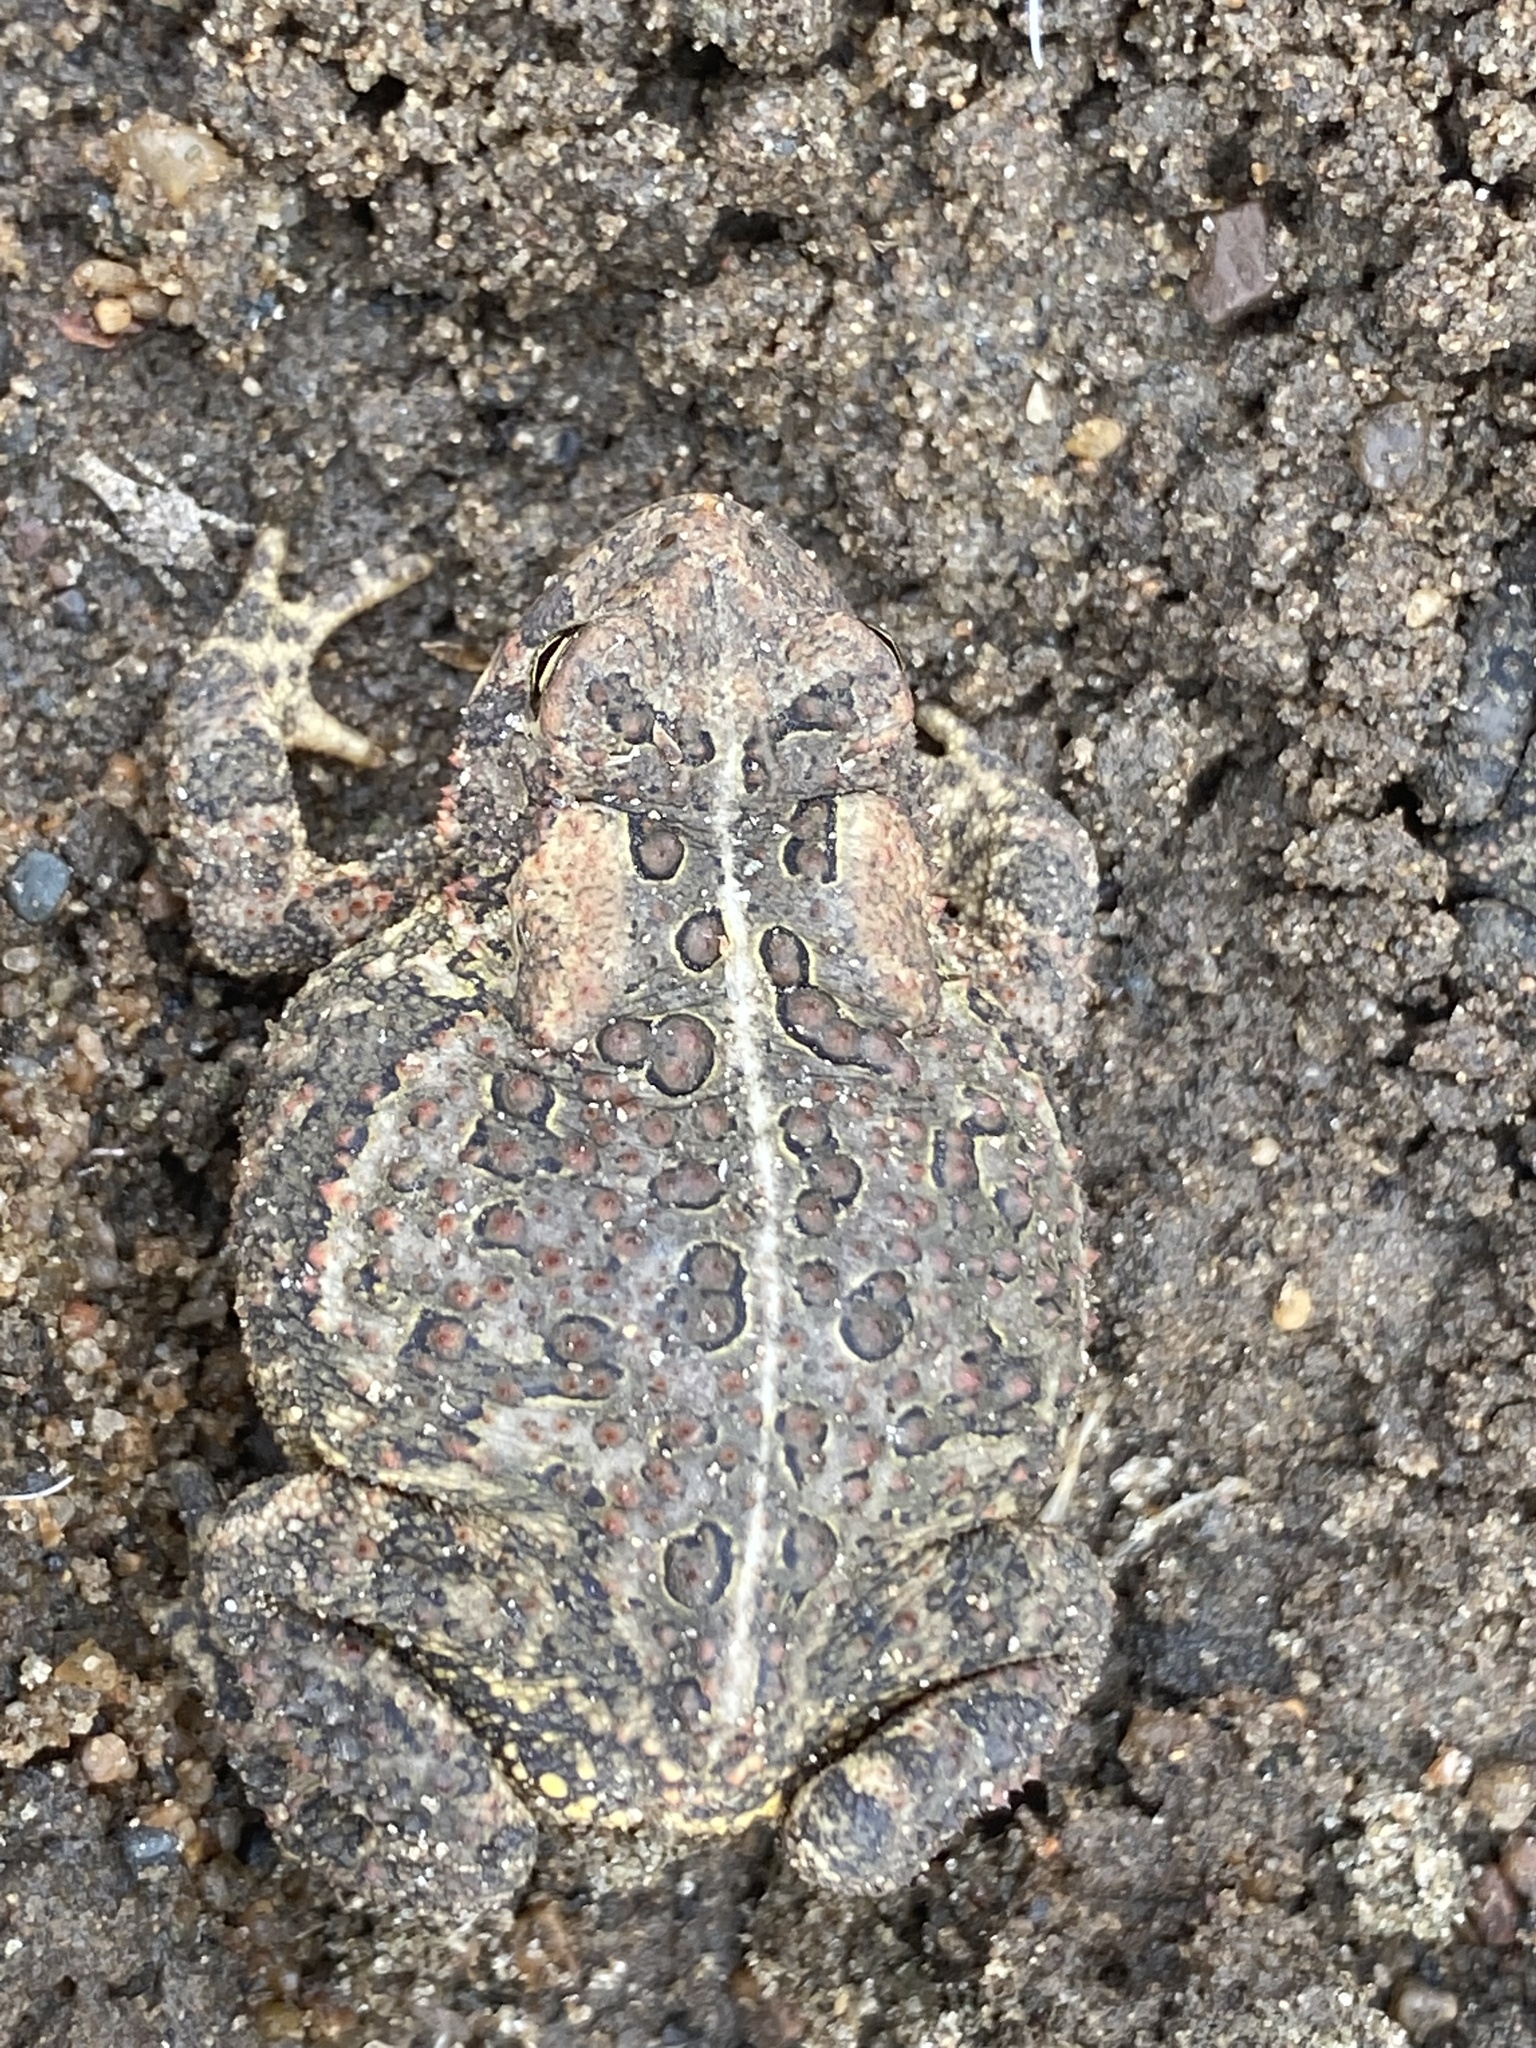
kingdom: Animalia
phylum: Chordata
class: Amphibia
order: Anura
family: Bufonidae
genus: Anaxyrus
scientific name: Anaxyrus americanus
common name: American toad
